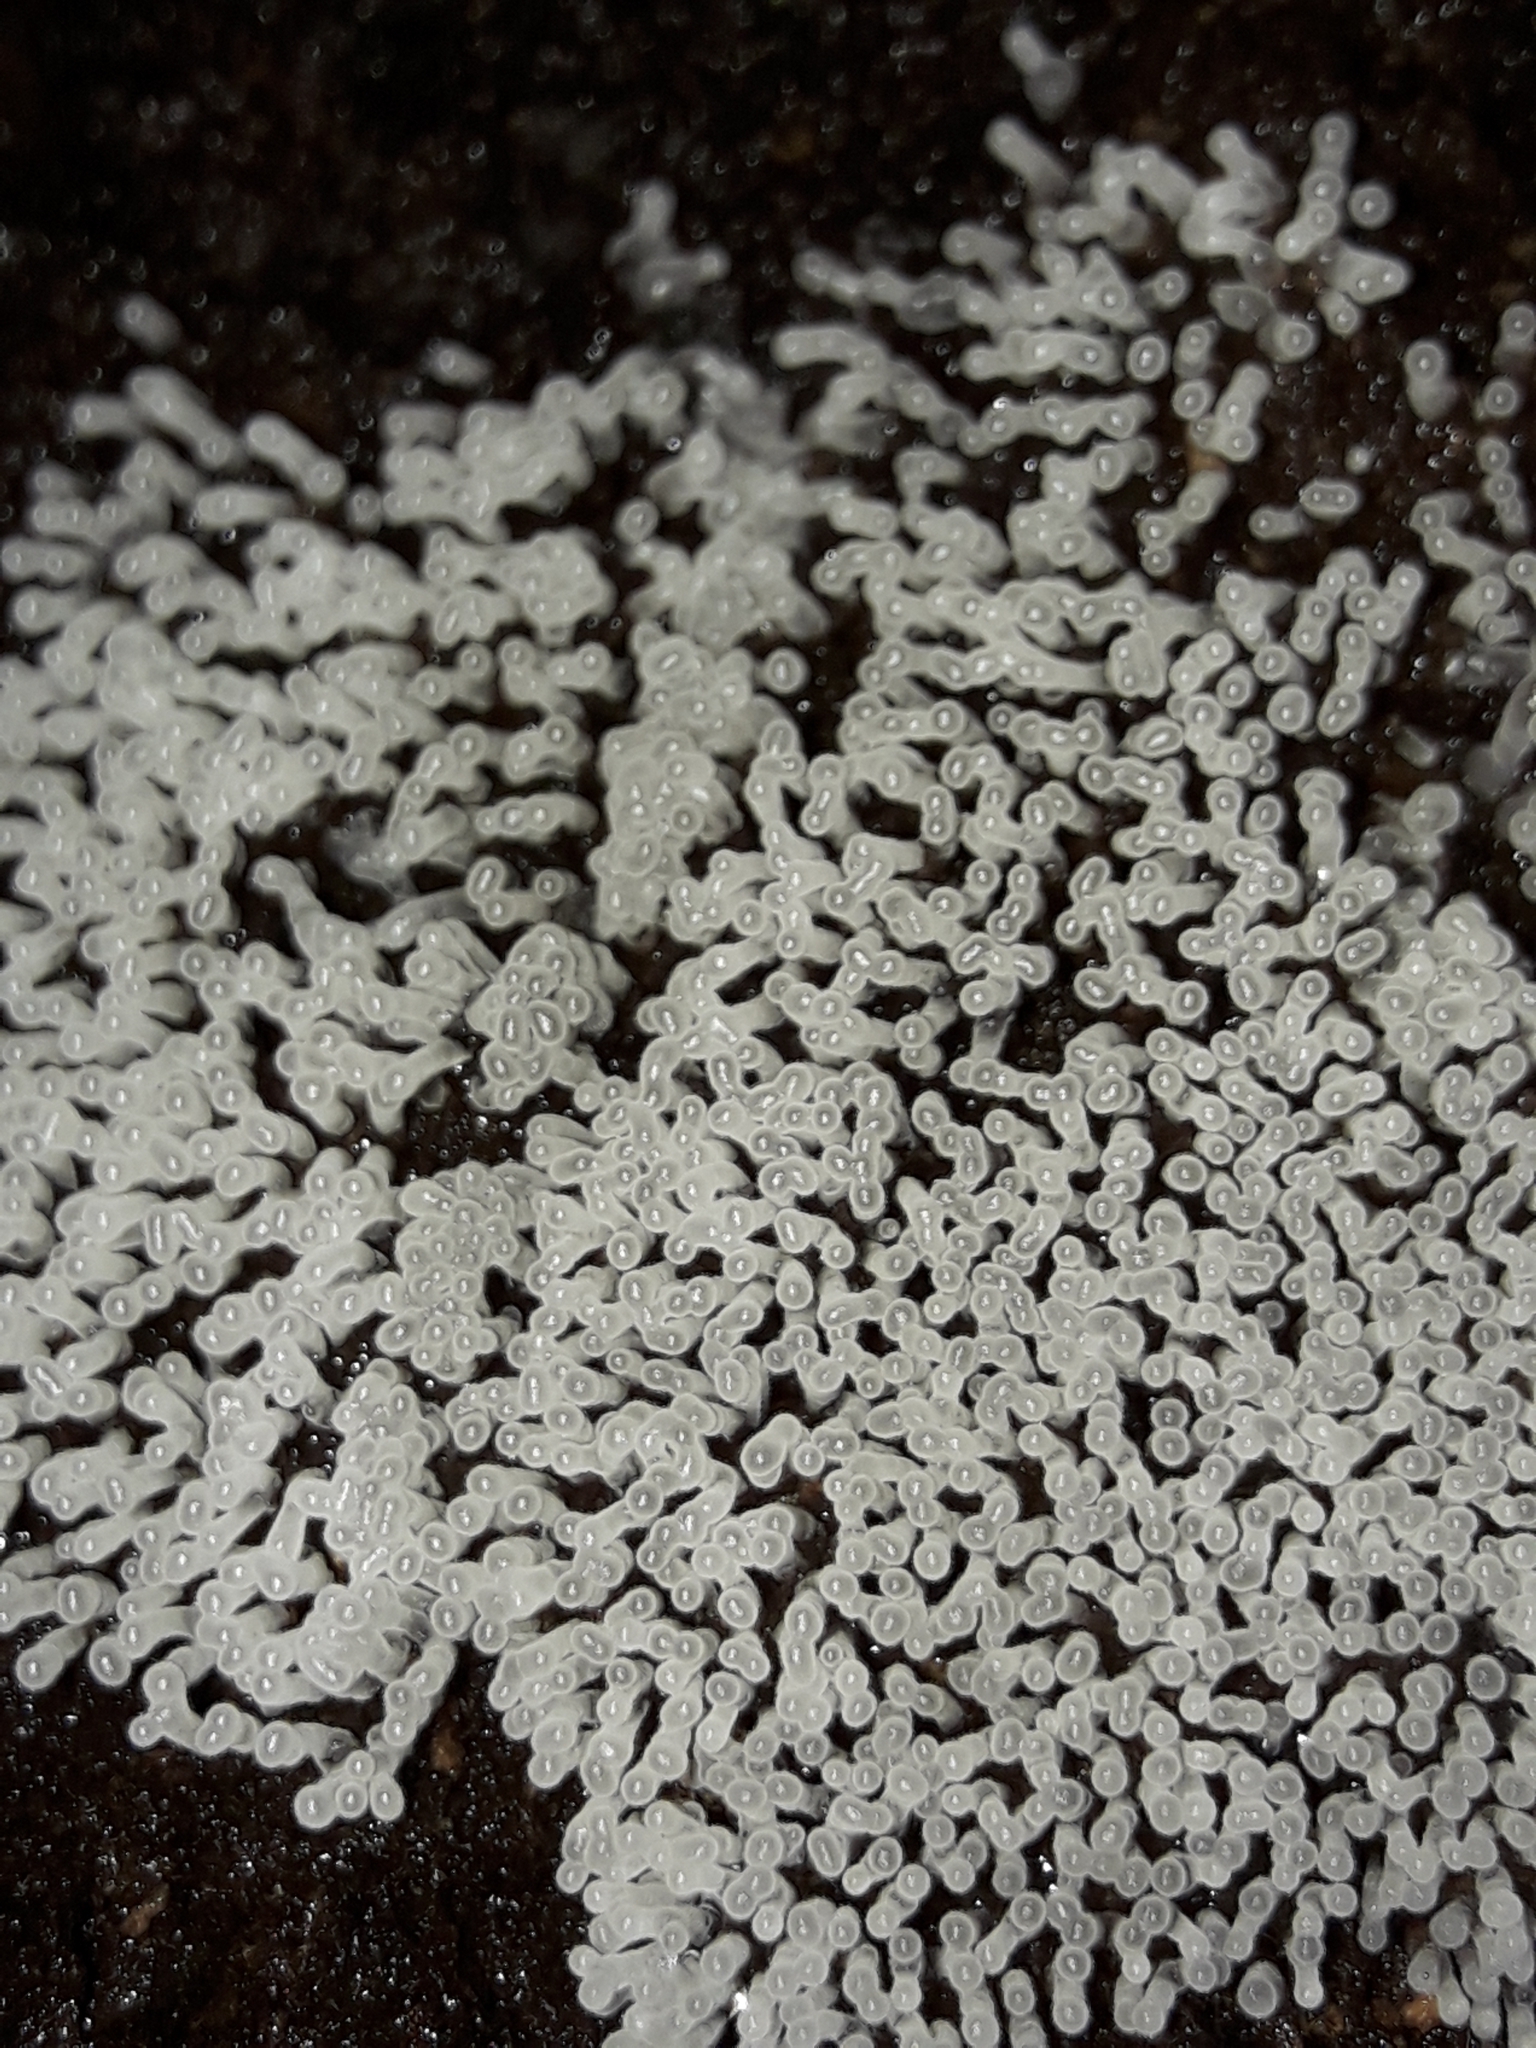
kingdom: Protozoa
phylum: Mycetozoa
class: Protosteliomycetes
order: Ceratiomyxales
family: Ceratiomyxaceae
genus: Ceratiomyxa
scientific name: Ceratiomyxa fruticulosa
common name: Honeycomb coral slime mold
